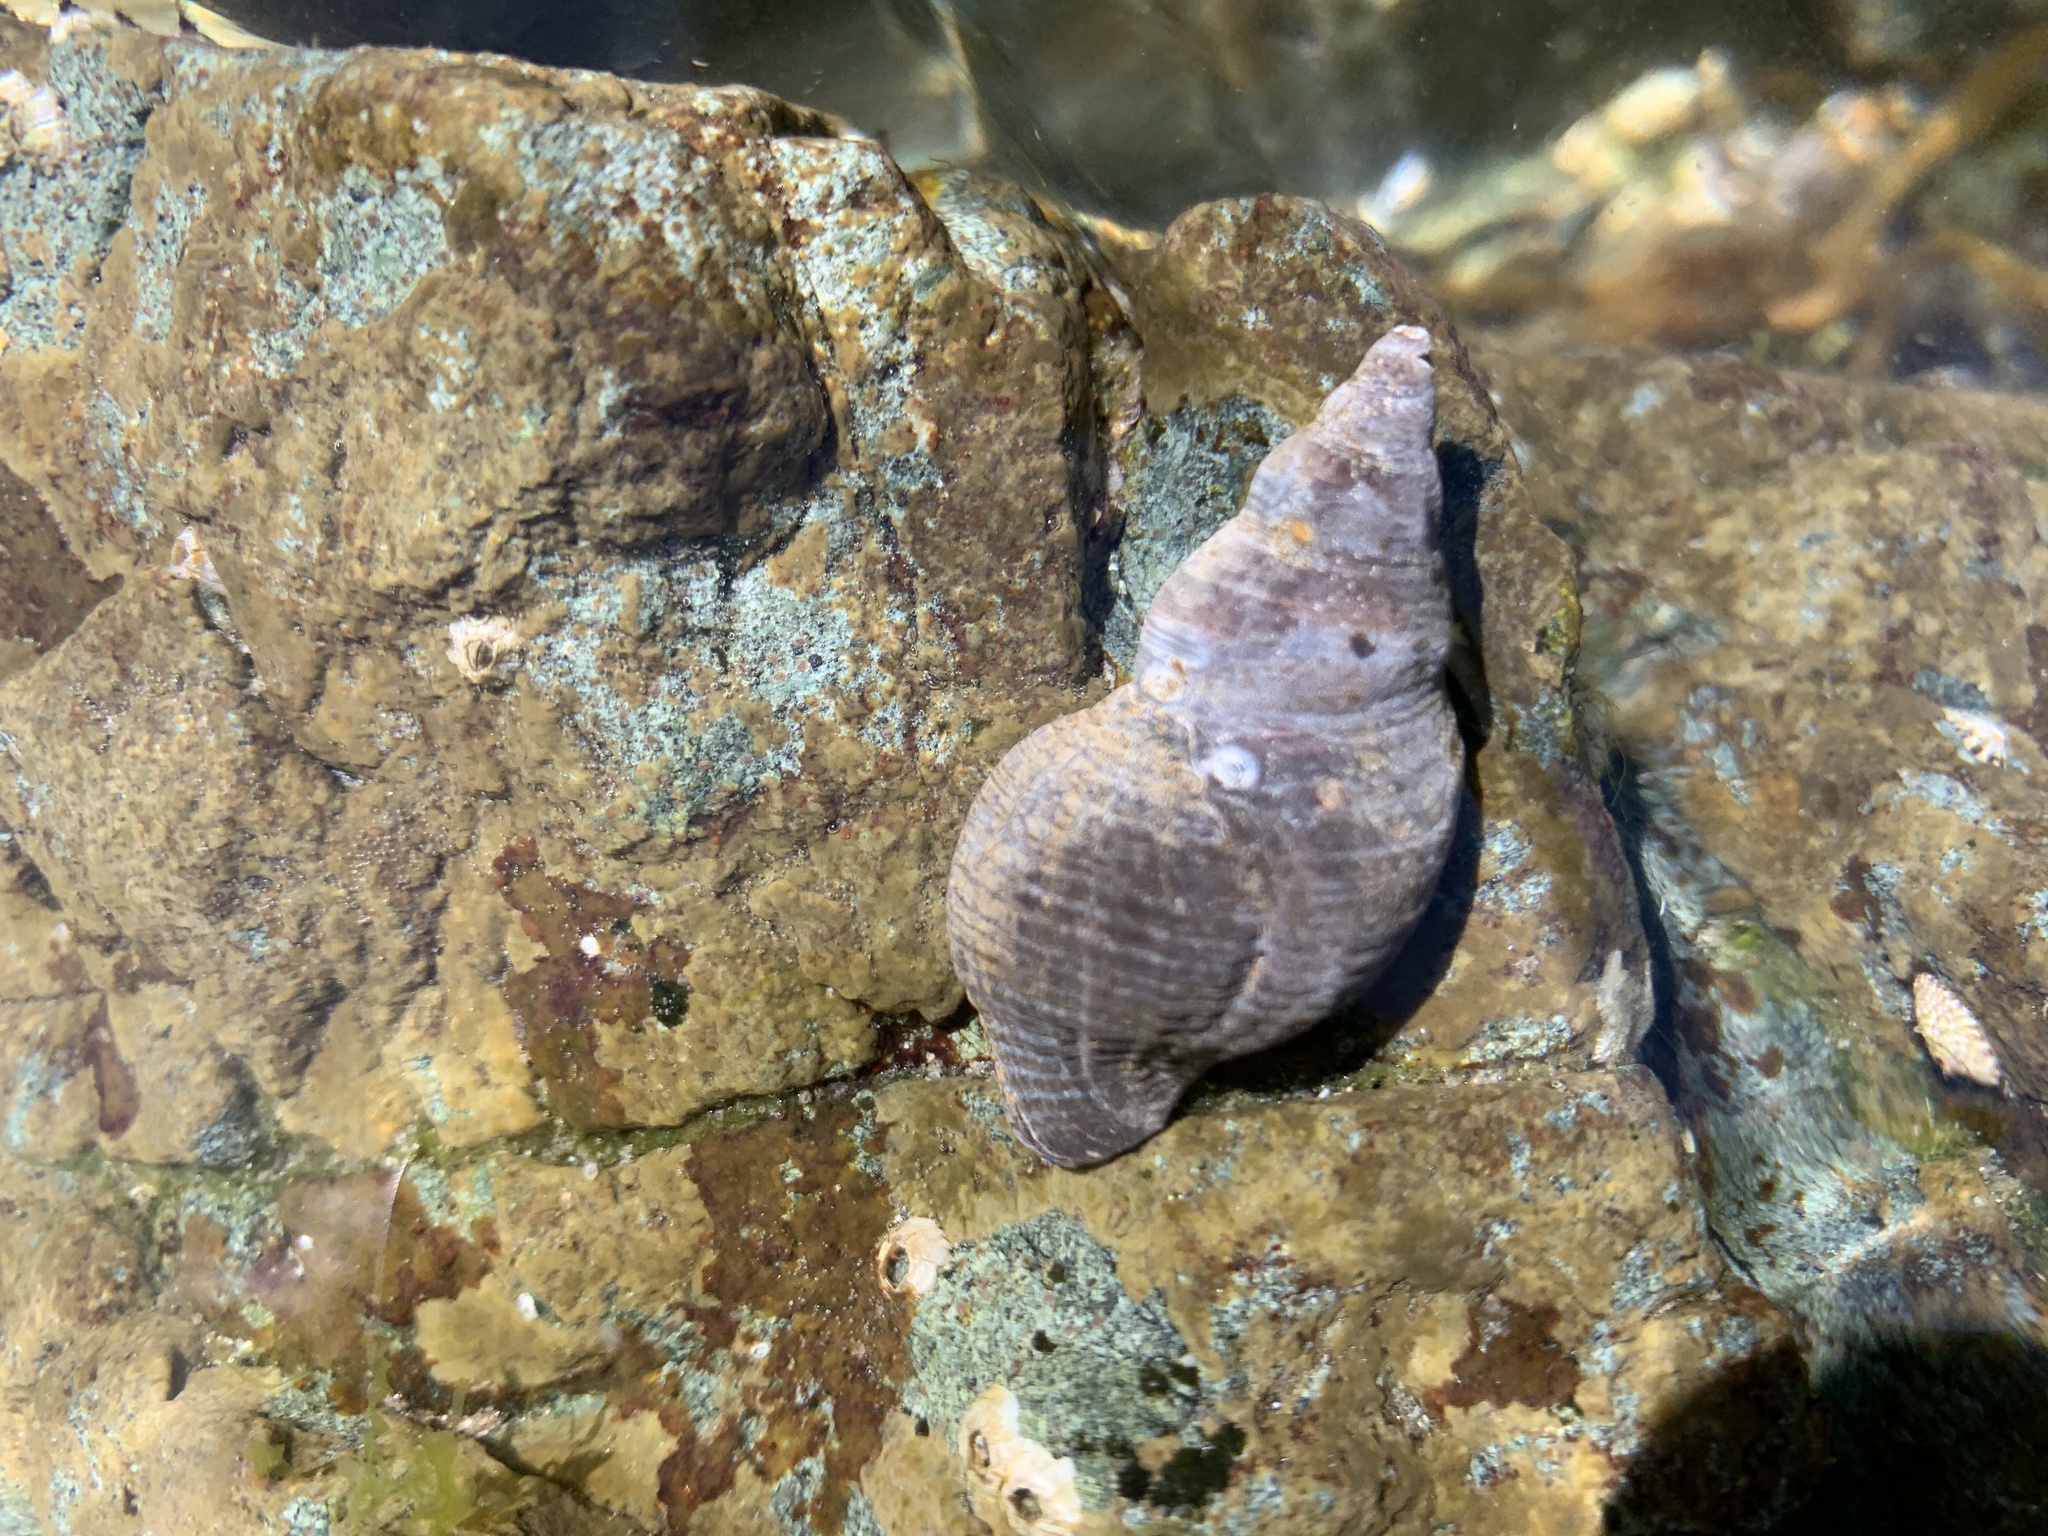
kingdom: Animalia
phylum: Mollusca
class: Gastropoda
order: Neogastropoda
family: Tudiclidae
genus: Lirabuccinum
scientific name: Lirabuccinum dirum
